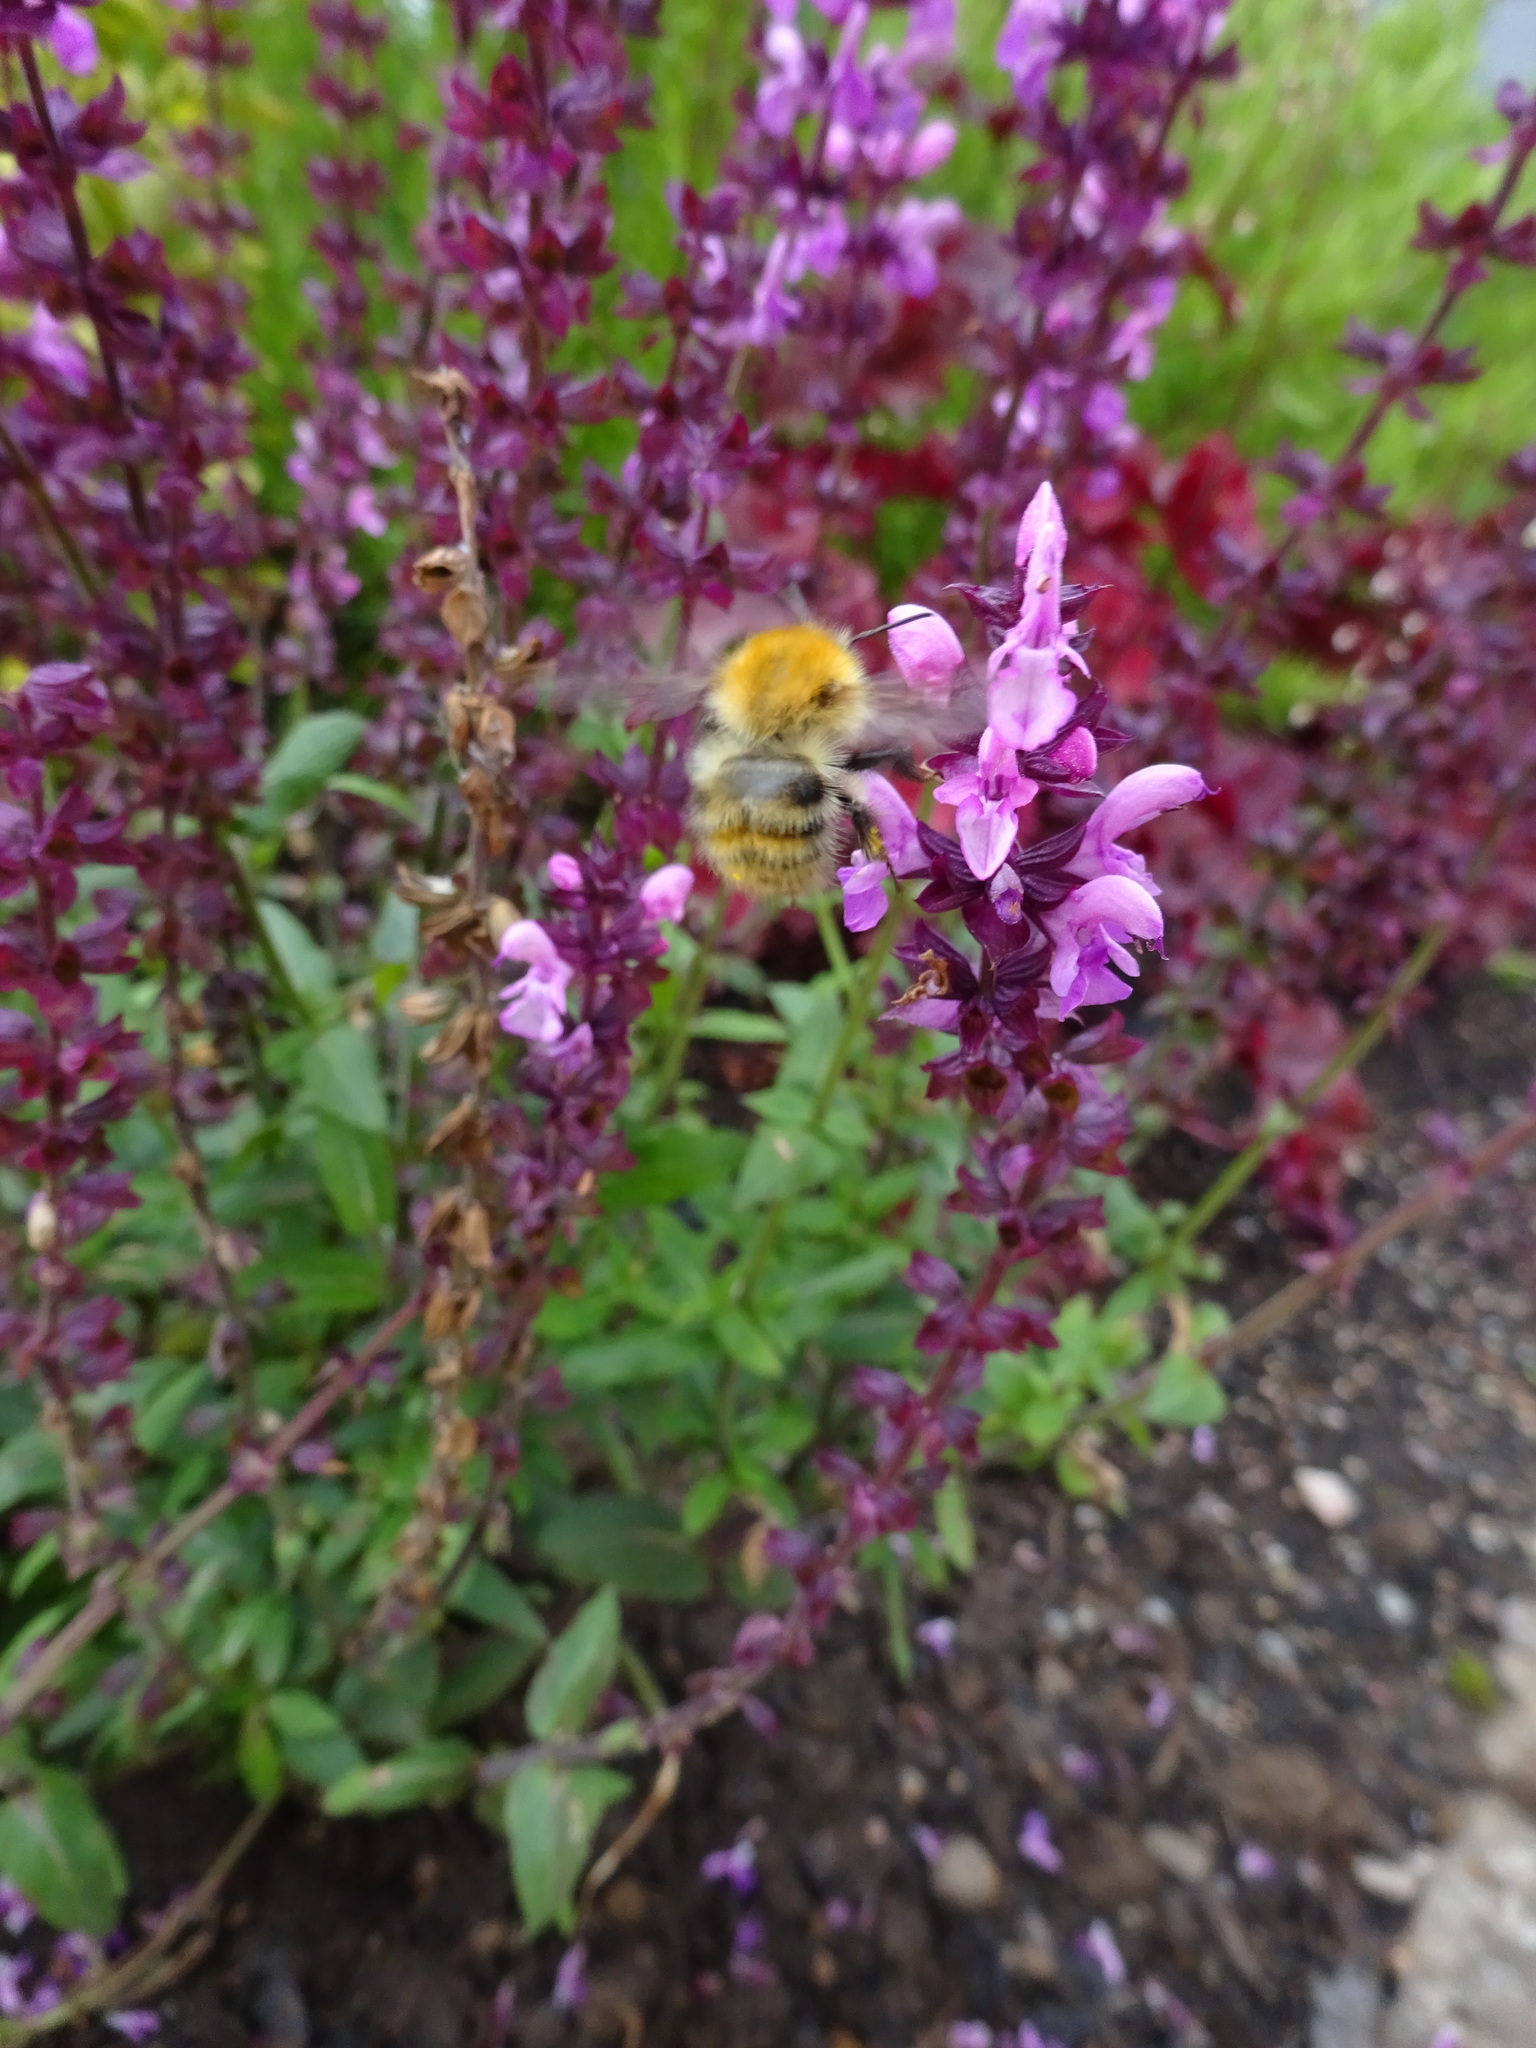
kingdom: Animalia
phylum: Arthropoda
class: Insecta
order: Hymenoptera
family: Apidae
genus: Bombus
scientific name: Bombus pascuorum
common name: Common carder bee
